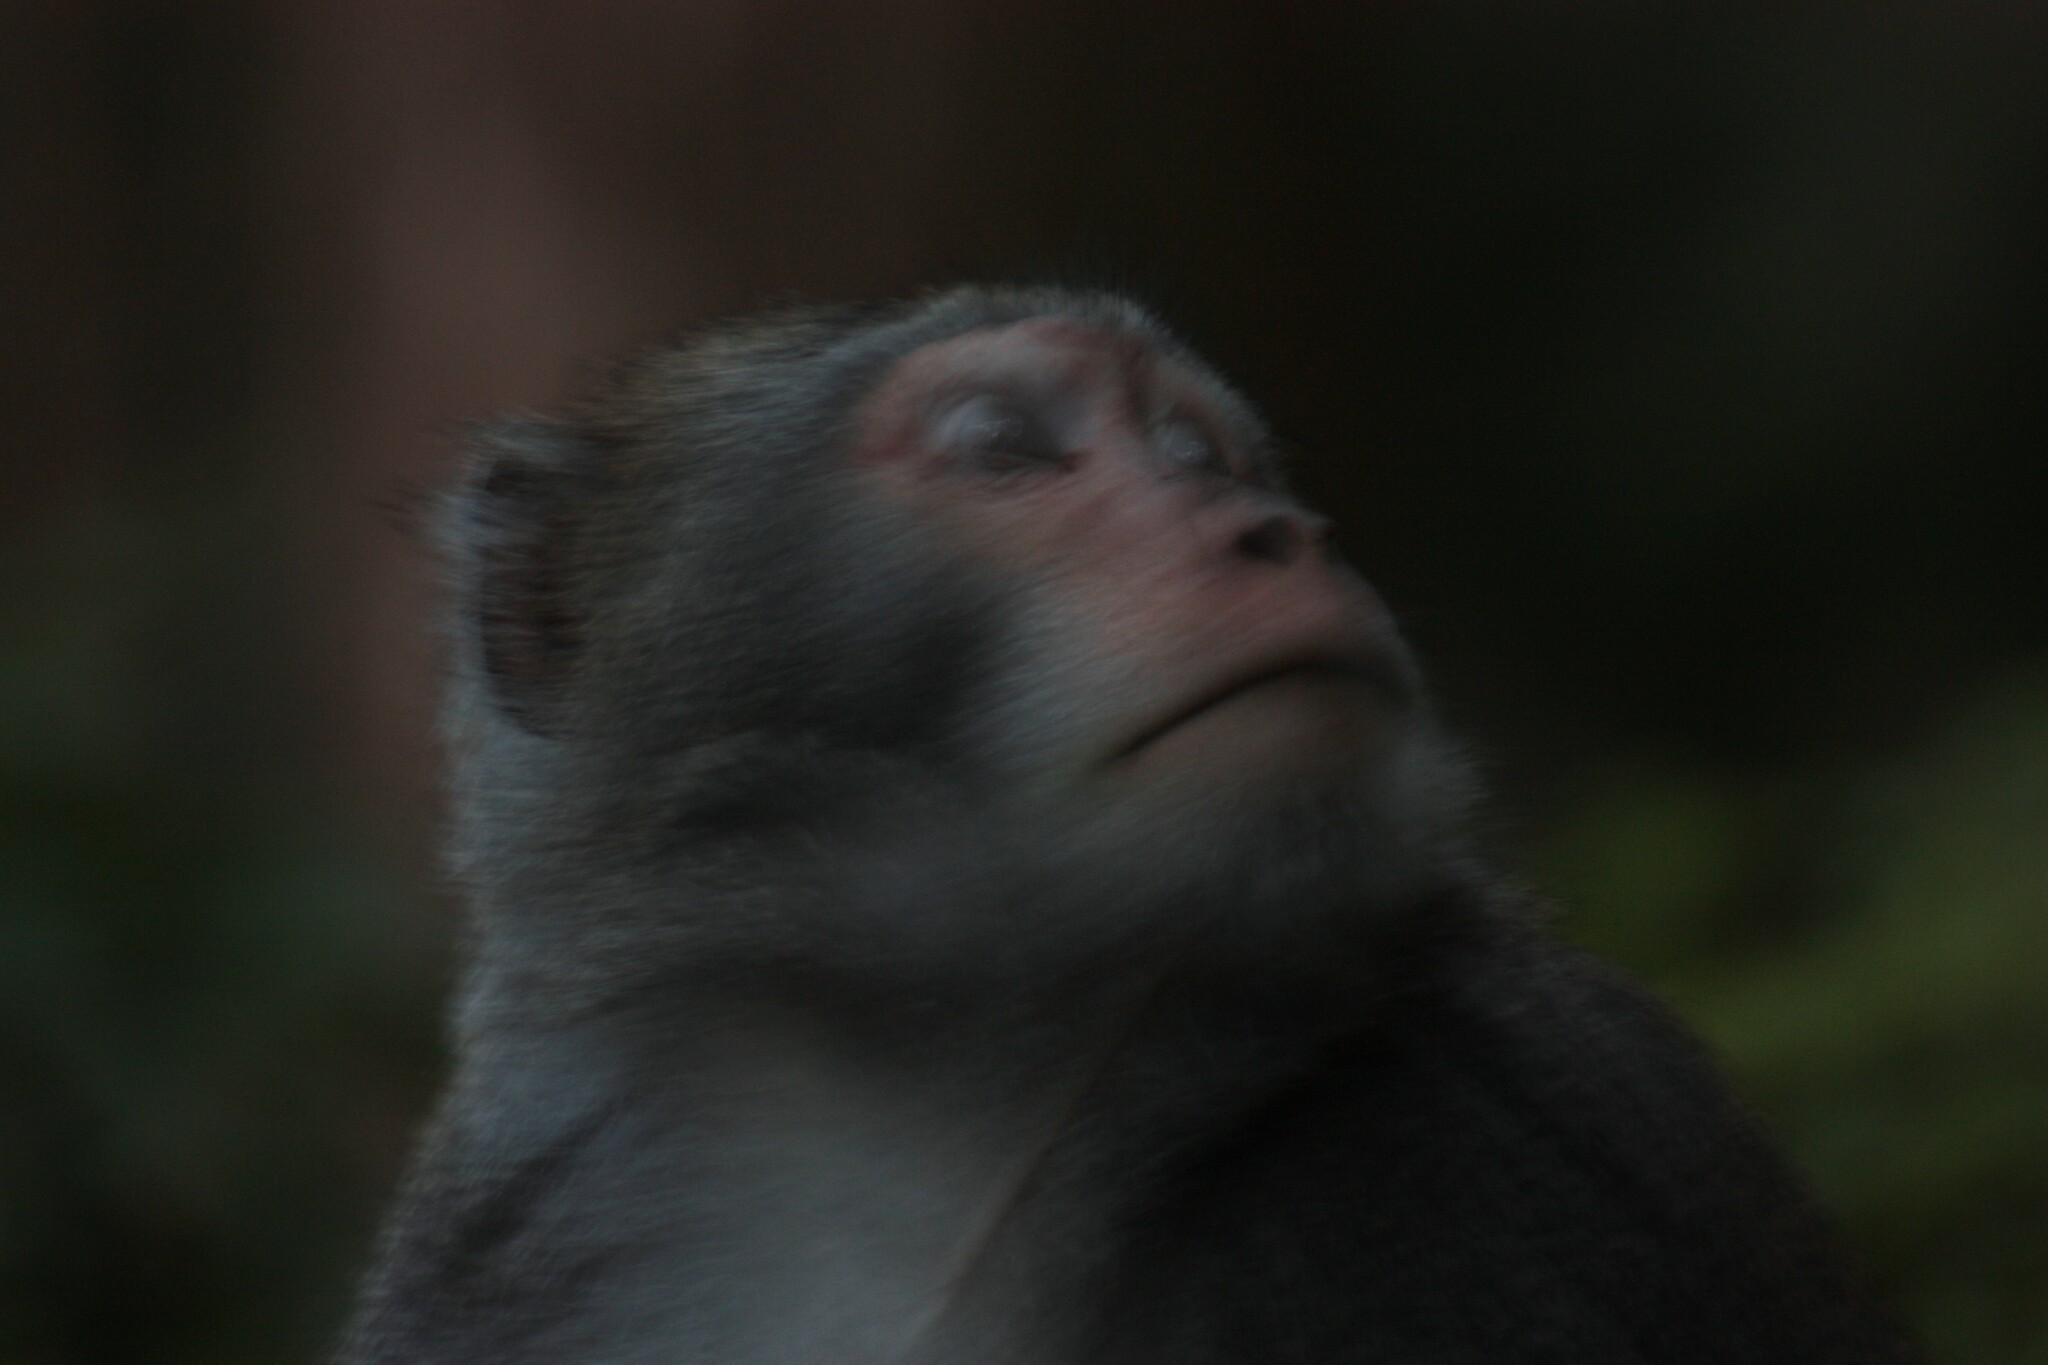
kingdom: Animalia
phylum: Chordata
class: Mammalia
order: Primates
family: Cercopithecidae
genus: Macaca
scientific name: Macaca cyclopis
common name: Formosan rock macaque
